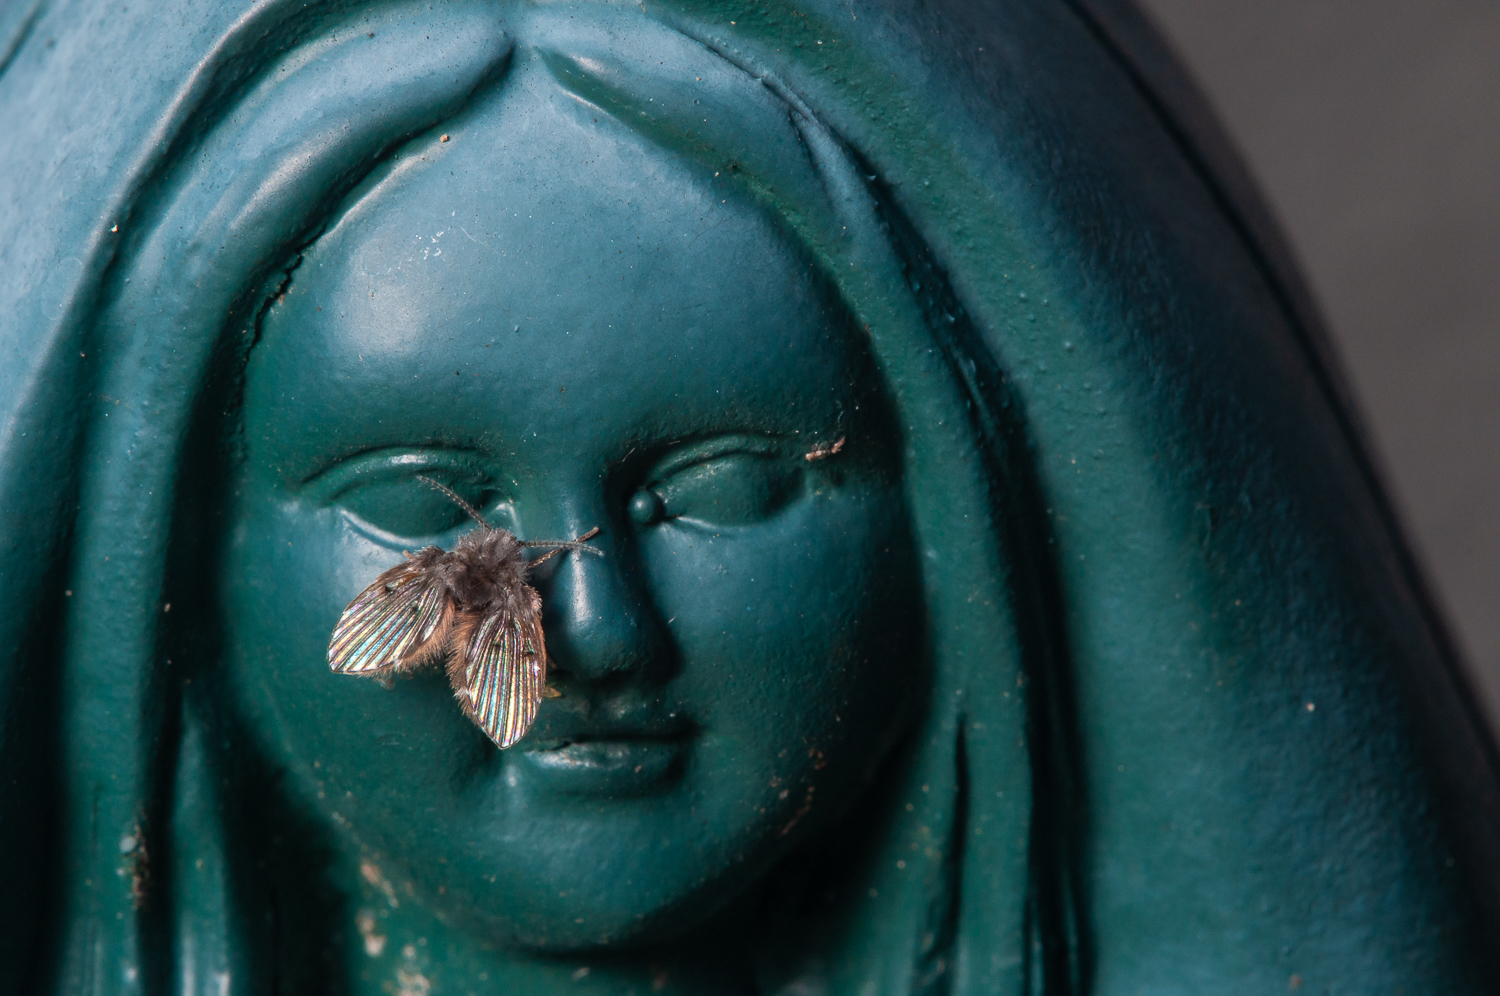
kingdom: Animalia
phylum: Arthropoda
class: Insecta
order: Diptera
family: Psychodidae
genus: Clogmia
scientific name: Clogmia albipunctatus
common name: White-spotted moth fly
